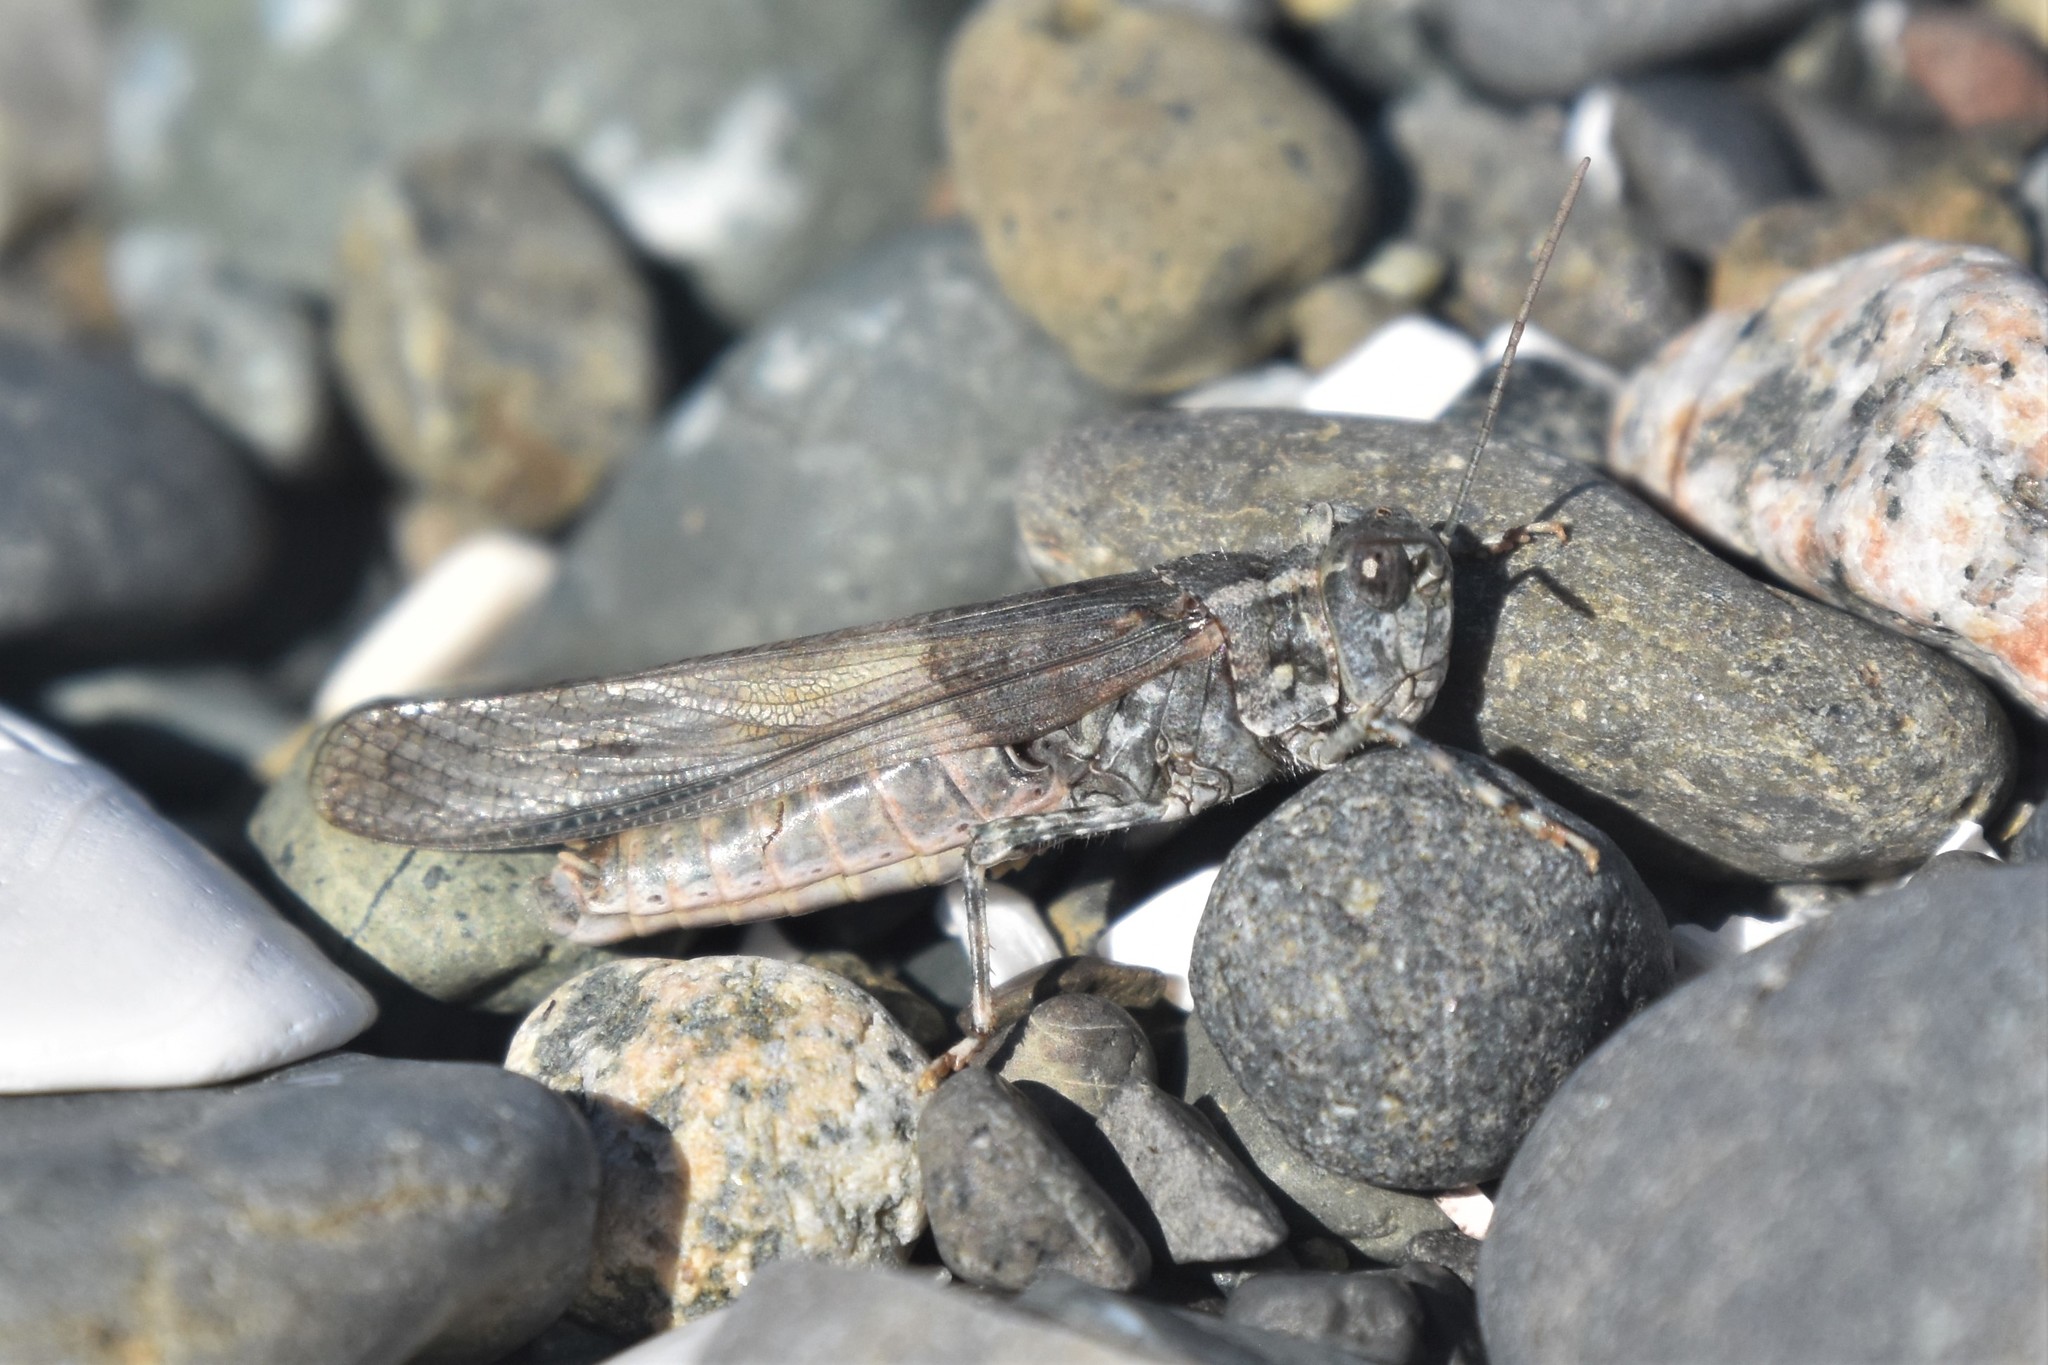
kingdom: Animalia
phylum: Arthropoda
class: Insecta
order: Orthoptera
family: Acrididae
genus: Trimerotropis
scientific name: Trimerotropis pallidipennis
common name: Pallid-winged grasshopper
